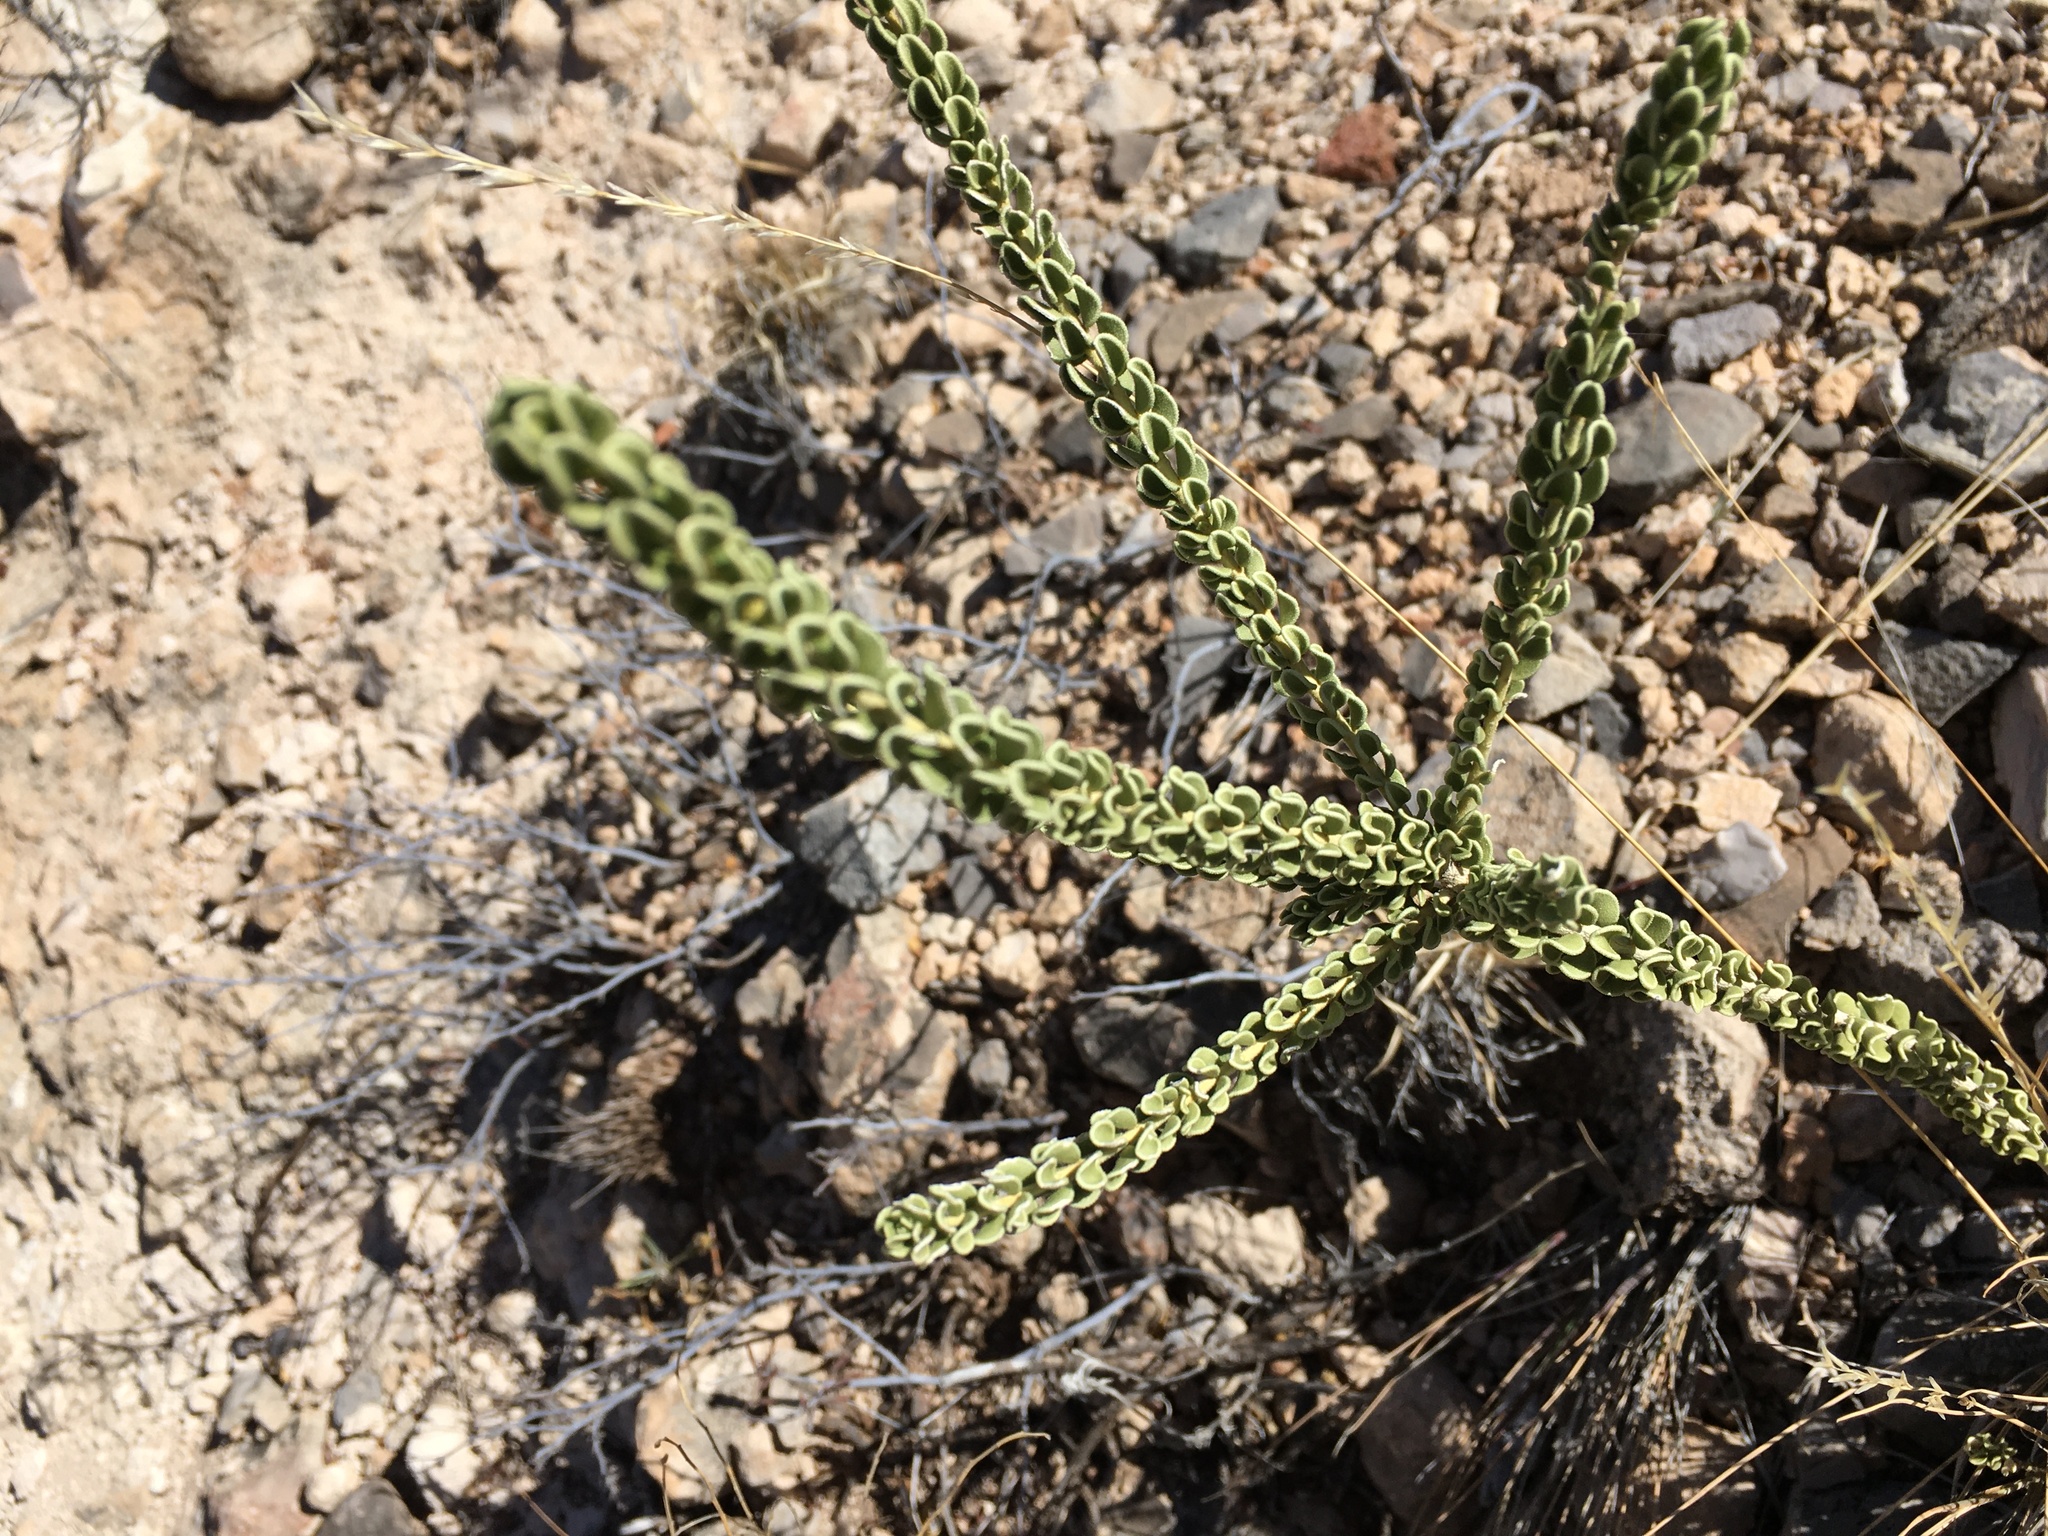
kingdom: Plantae
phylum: Tracheophyta
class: Magnoliopsida
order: Celastrales
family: Celastraceae
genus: Mortonia
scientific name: Mortonia scabrella
